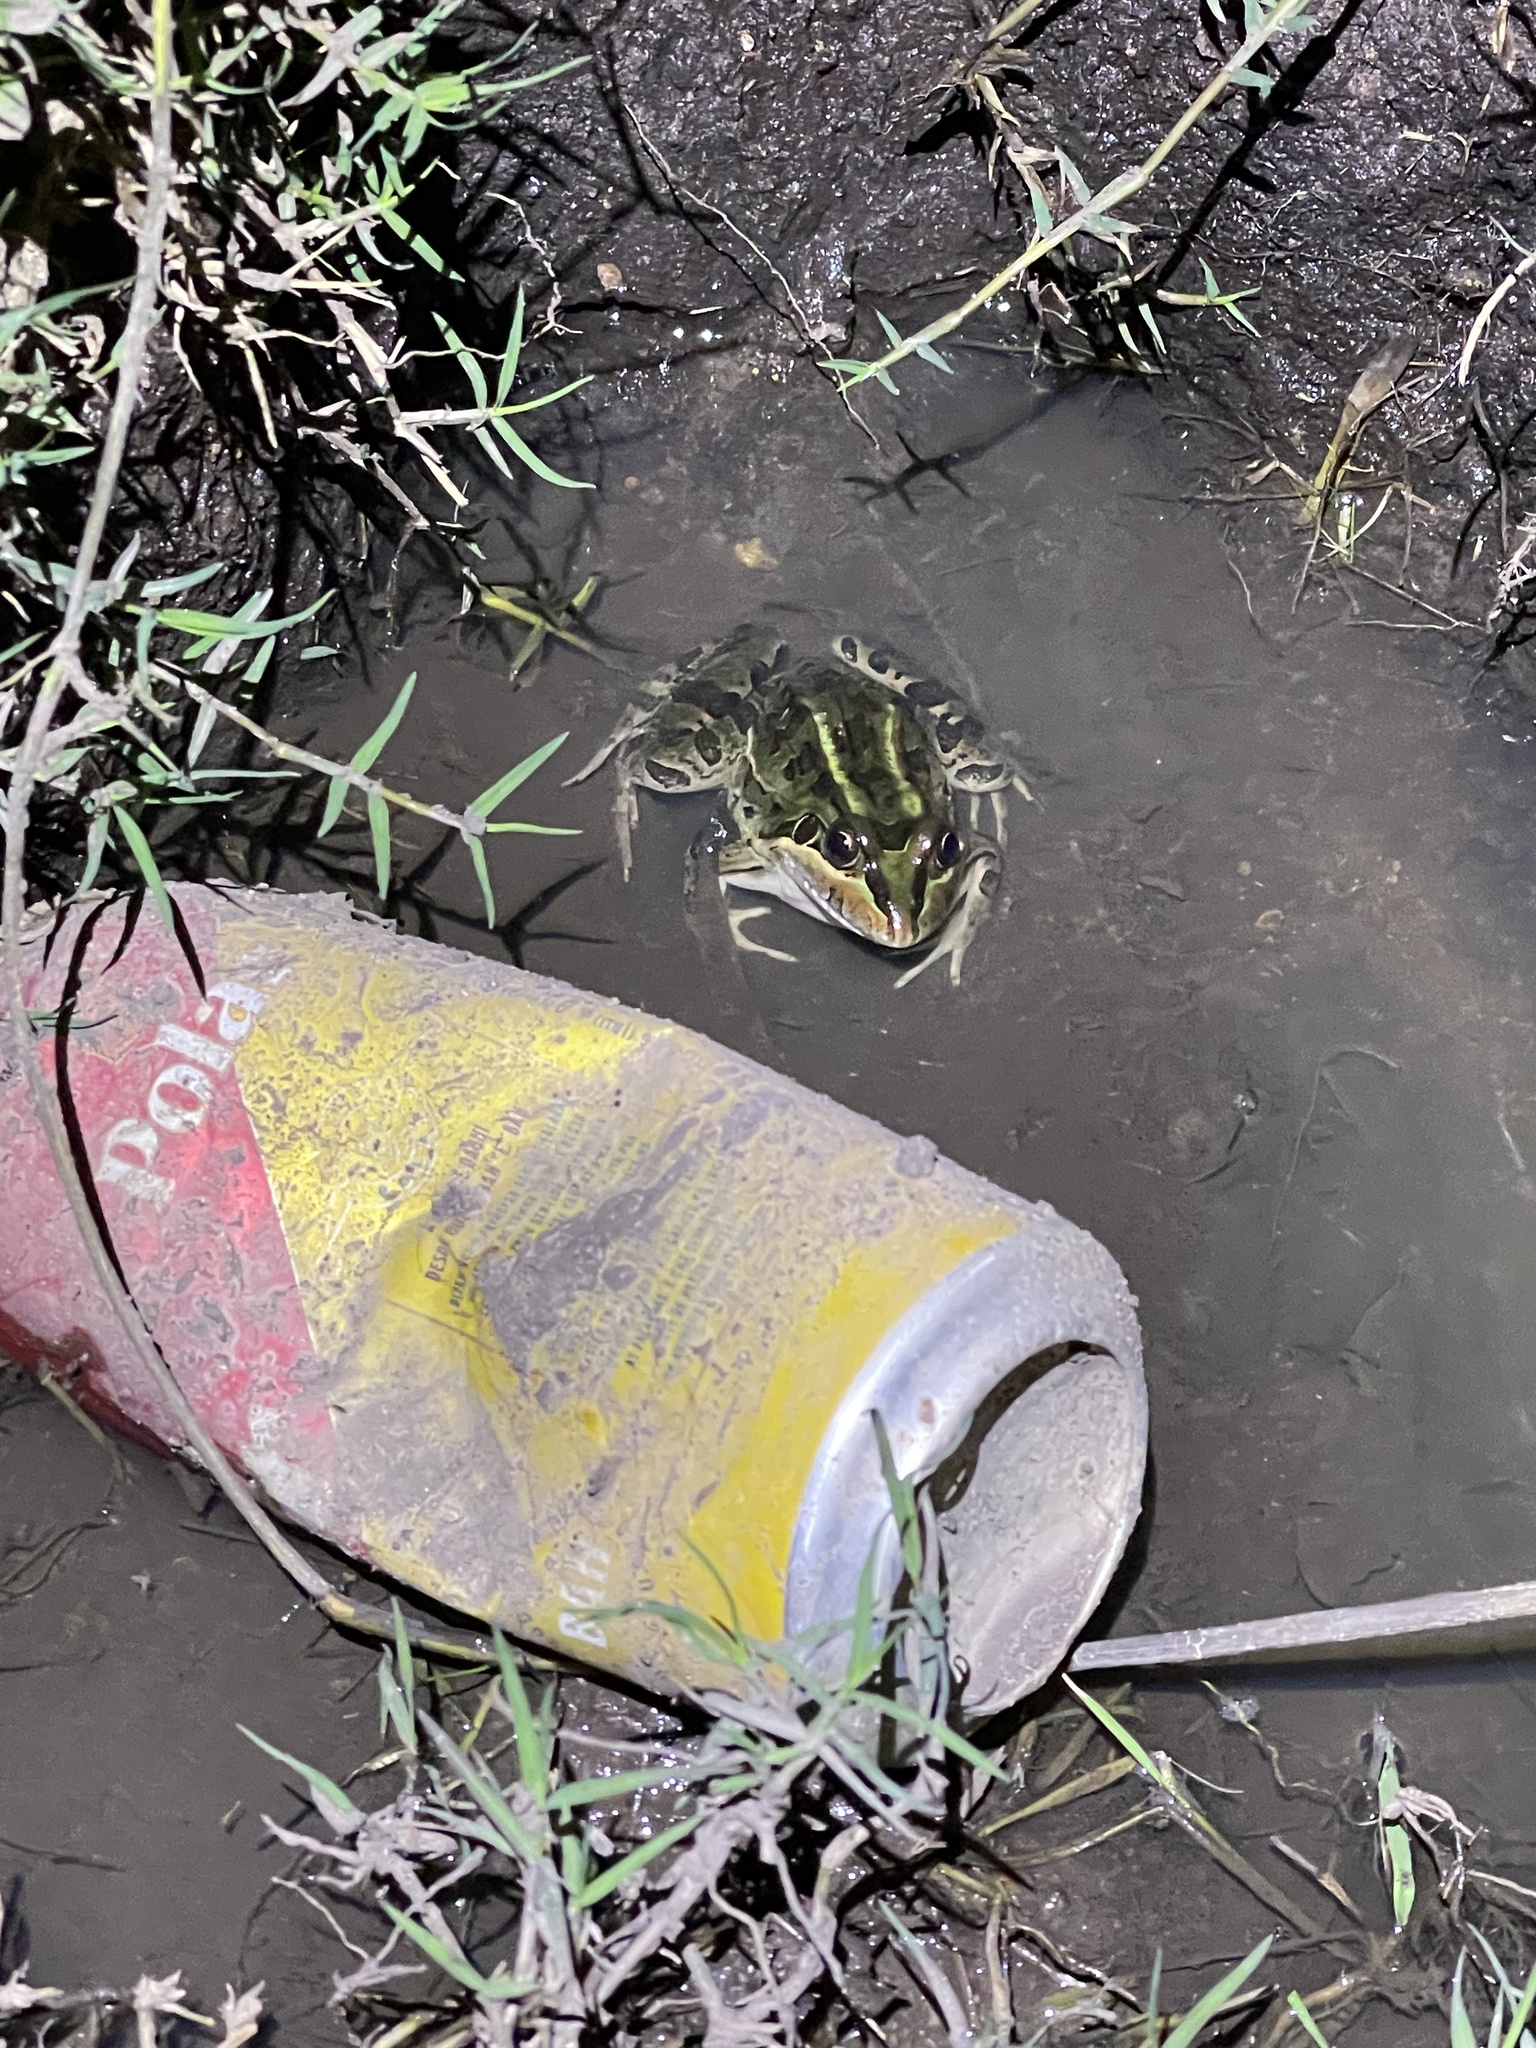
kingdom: Animalia
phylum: Chordata
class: Amphibia
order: Anura
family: Leptodactylidae
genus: Leptodactylus
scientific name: Leptodactylus luctator
